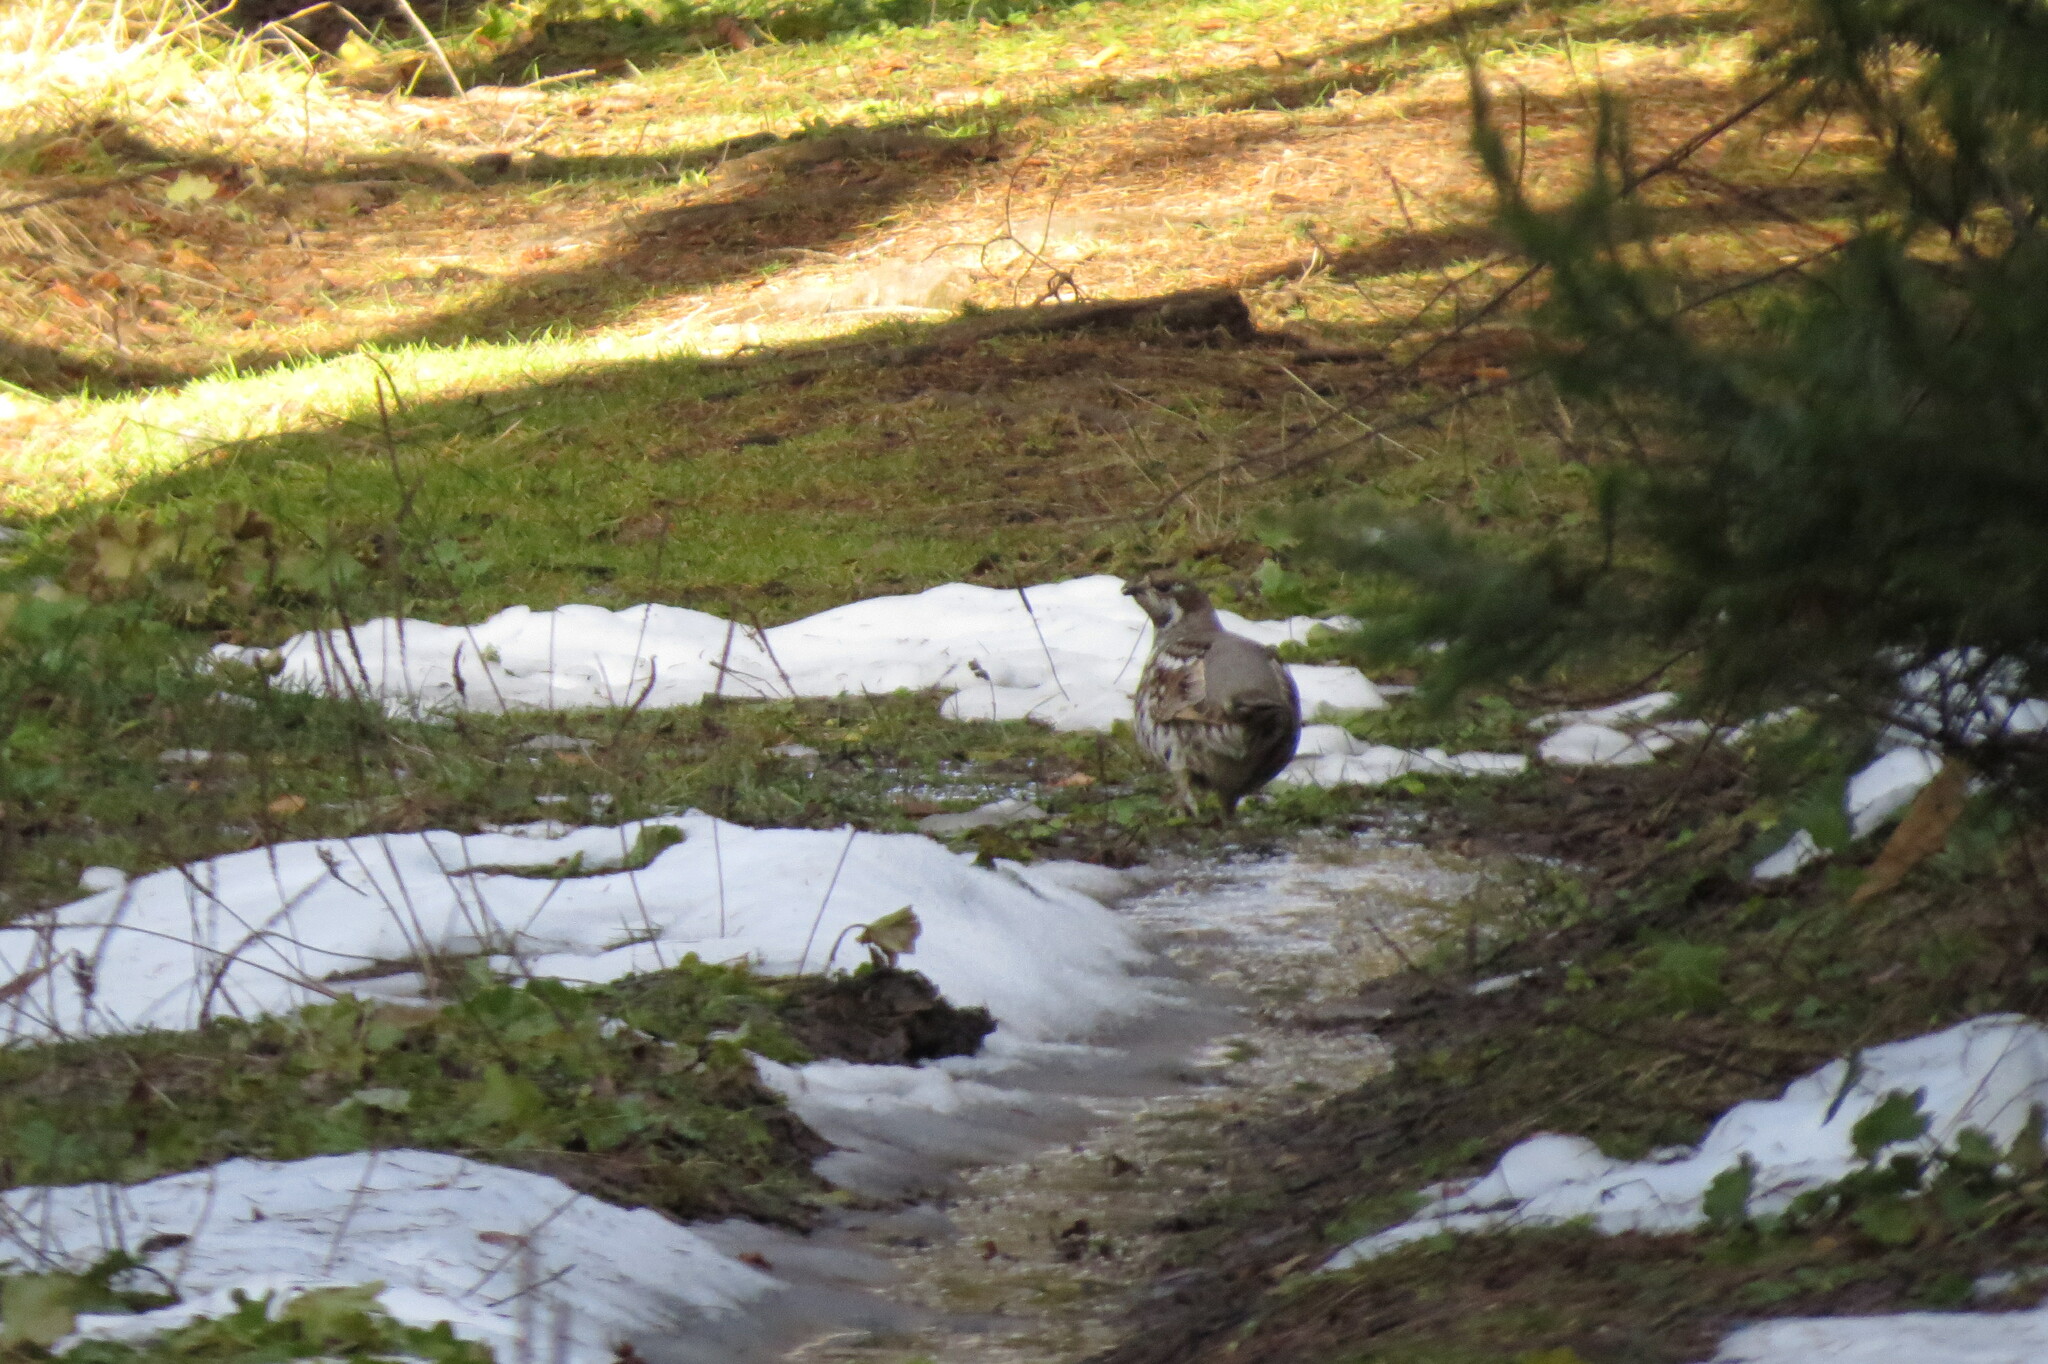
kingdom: Animalia
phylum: Chordata
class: Aves
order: Galliformes
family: Phasianidae
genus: Tetrastes
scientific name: Tetrastes bonasia
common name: Hazel grouse
